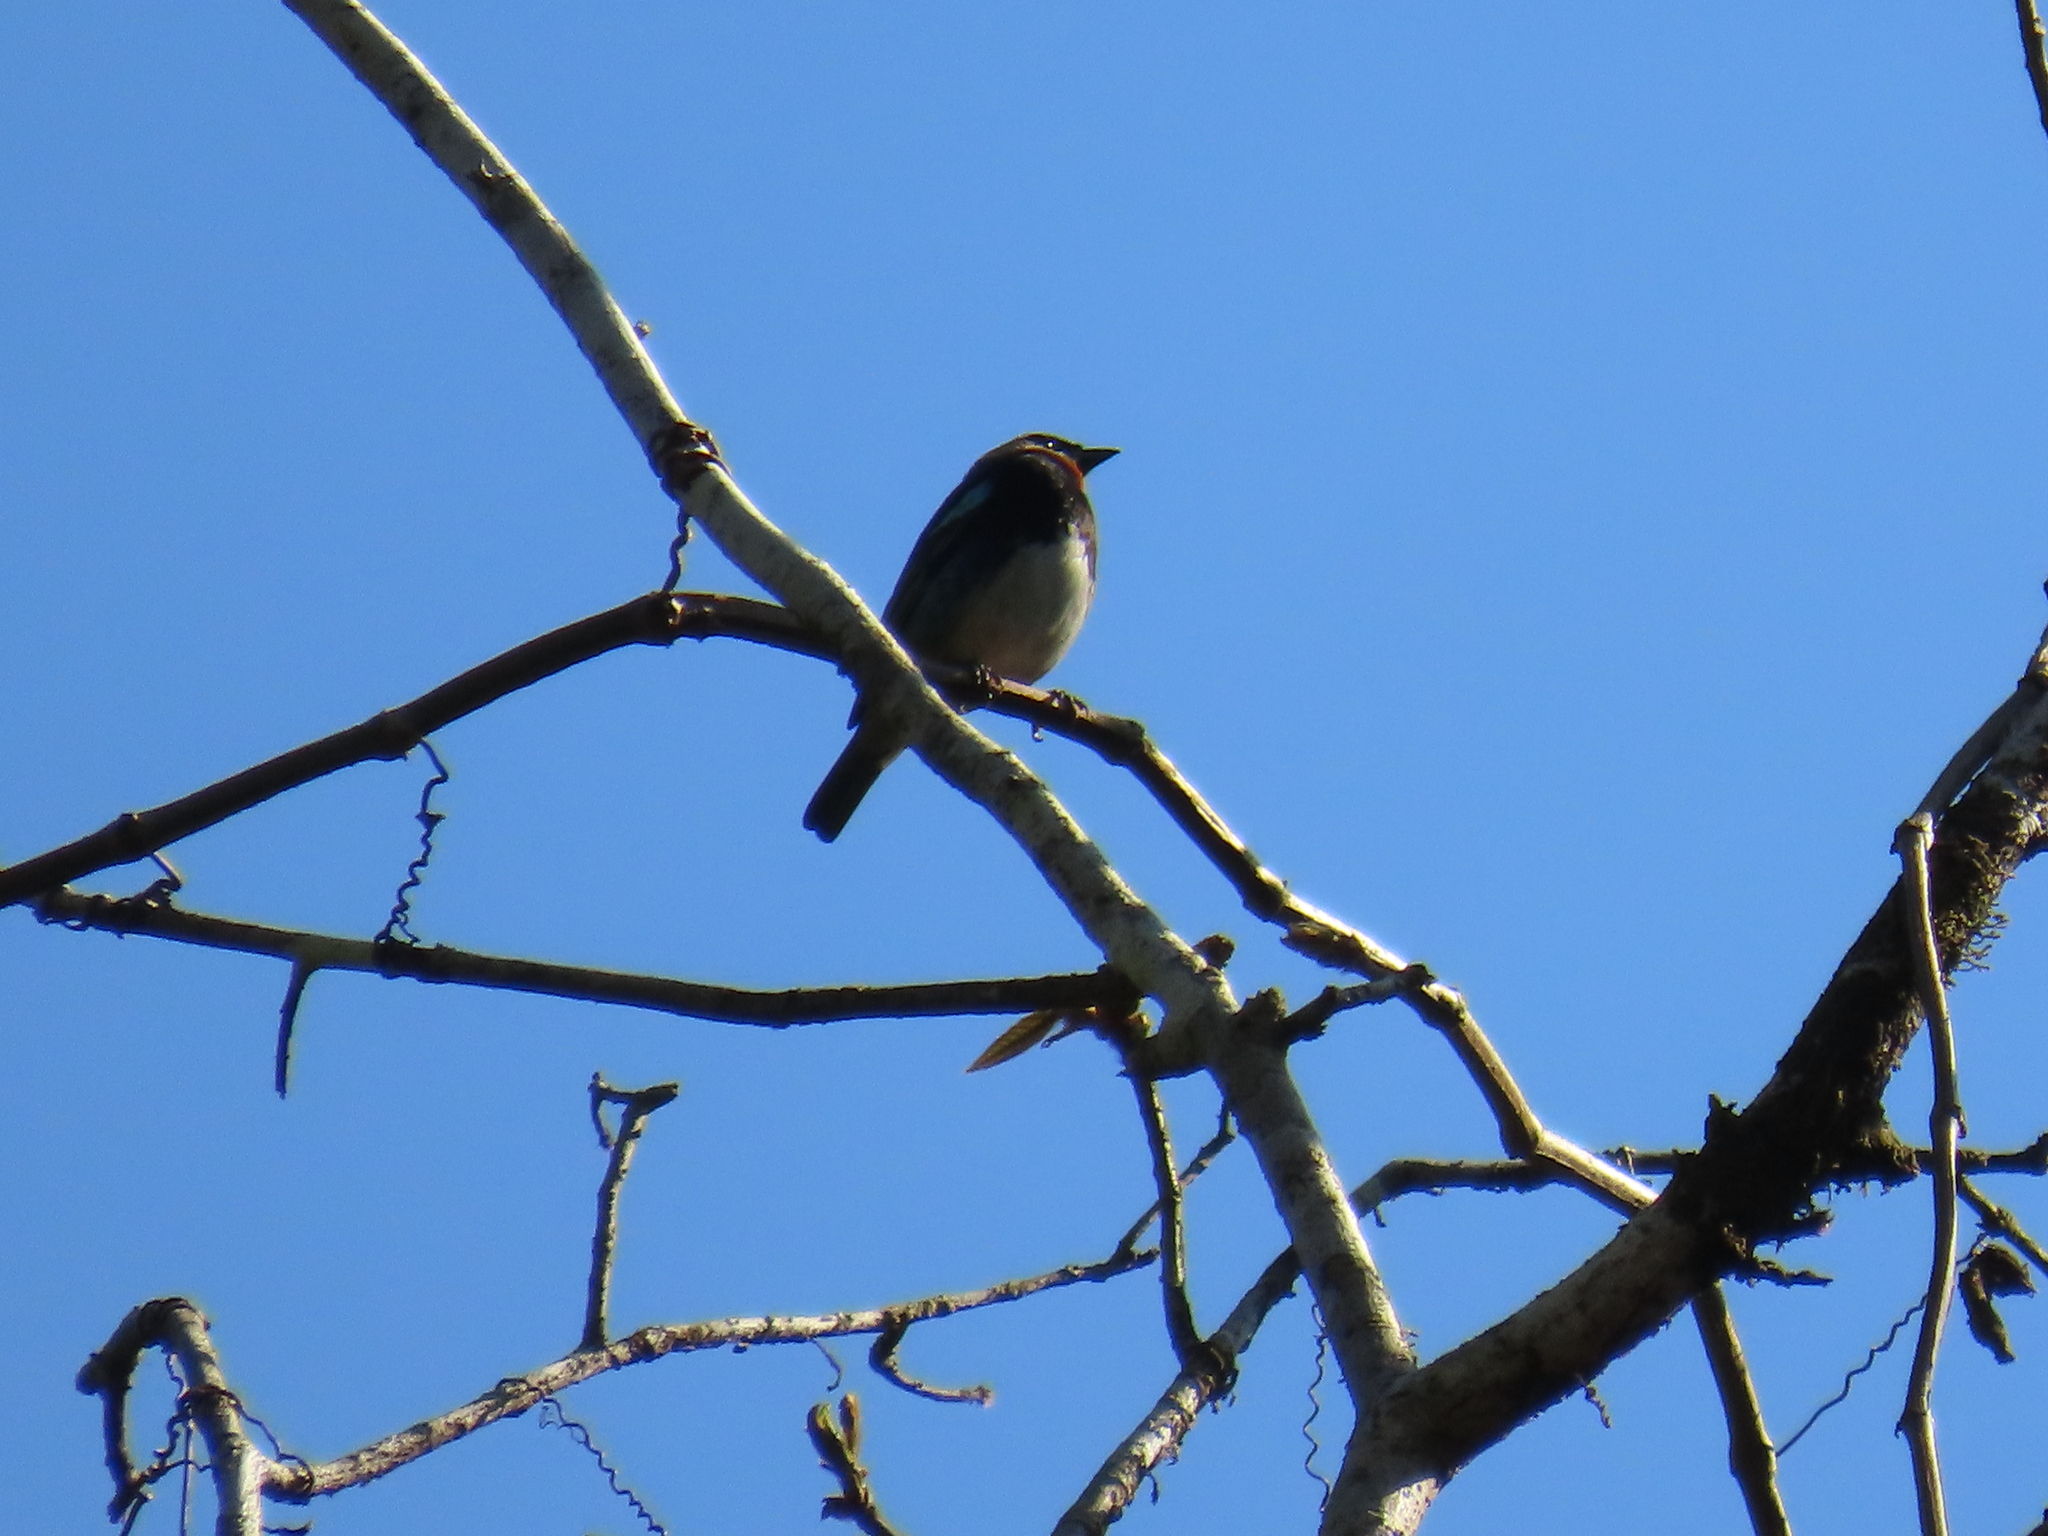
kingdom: Animalia
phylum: Chordata
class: Aves
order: Passeriformes
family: Thraupidae
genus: Stilpnia
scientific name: Stilpnia larvata
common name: Golden-hooded tanager
